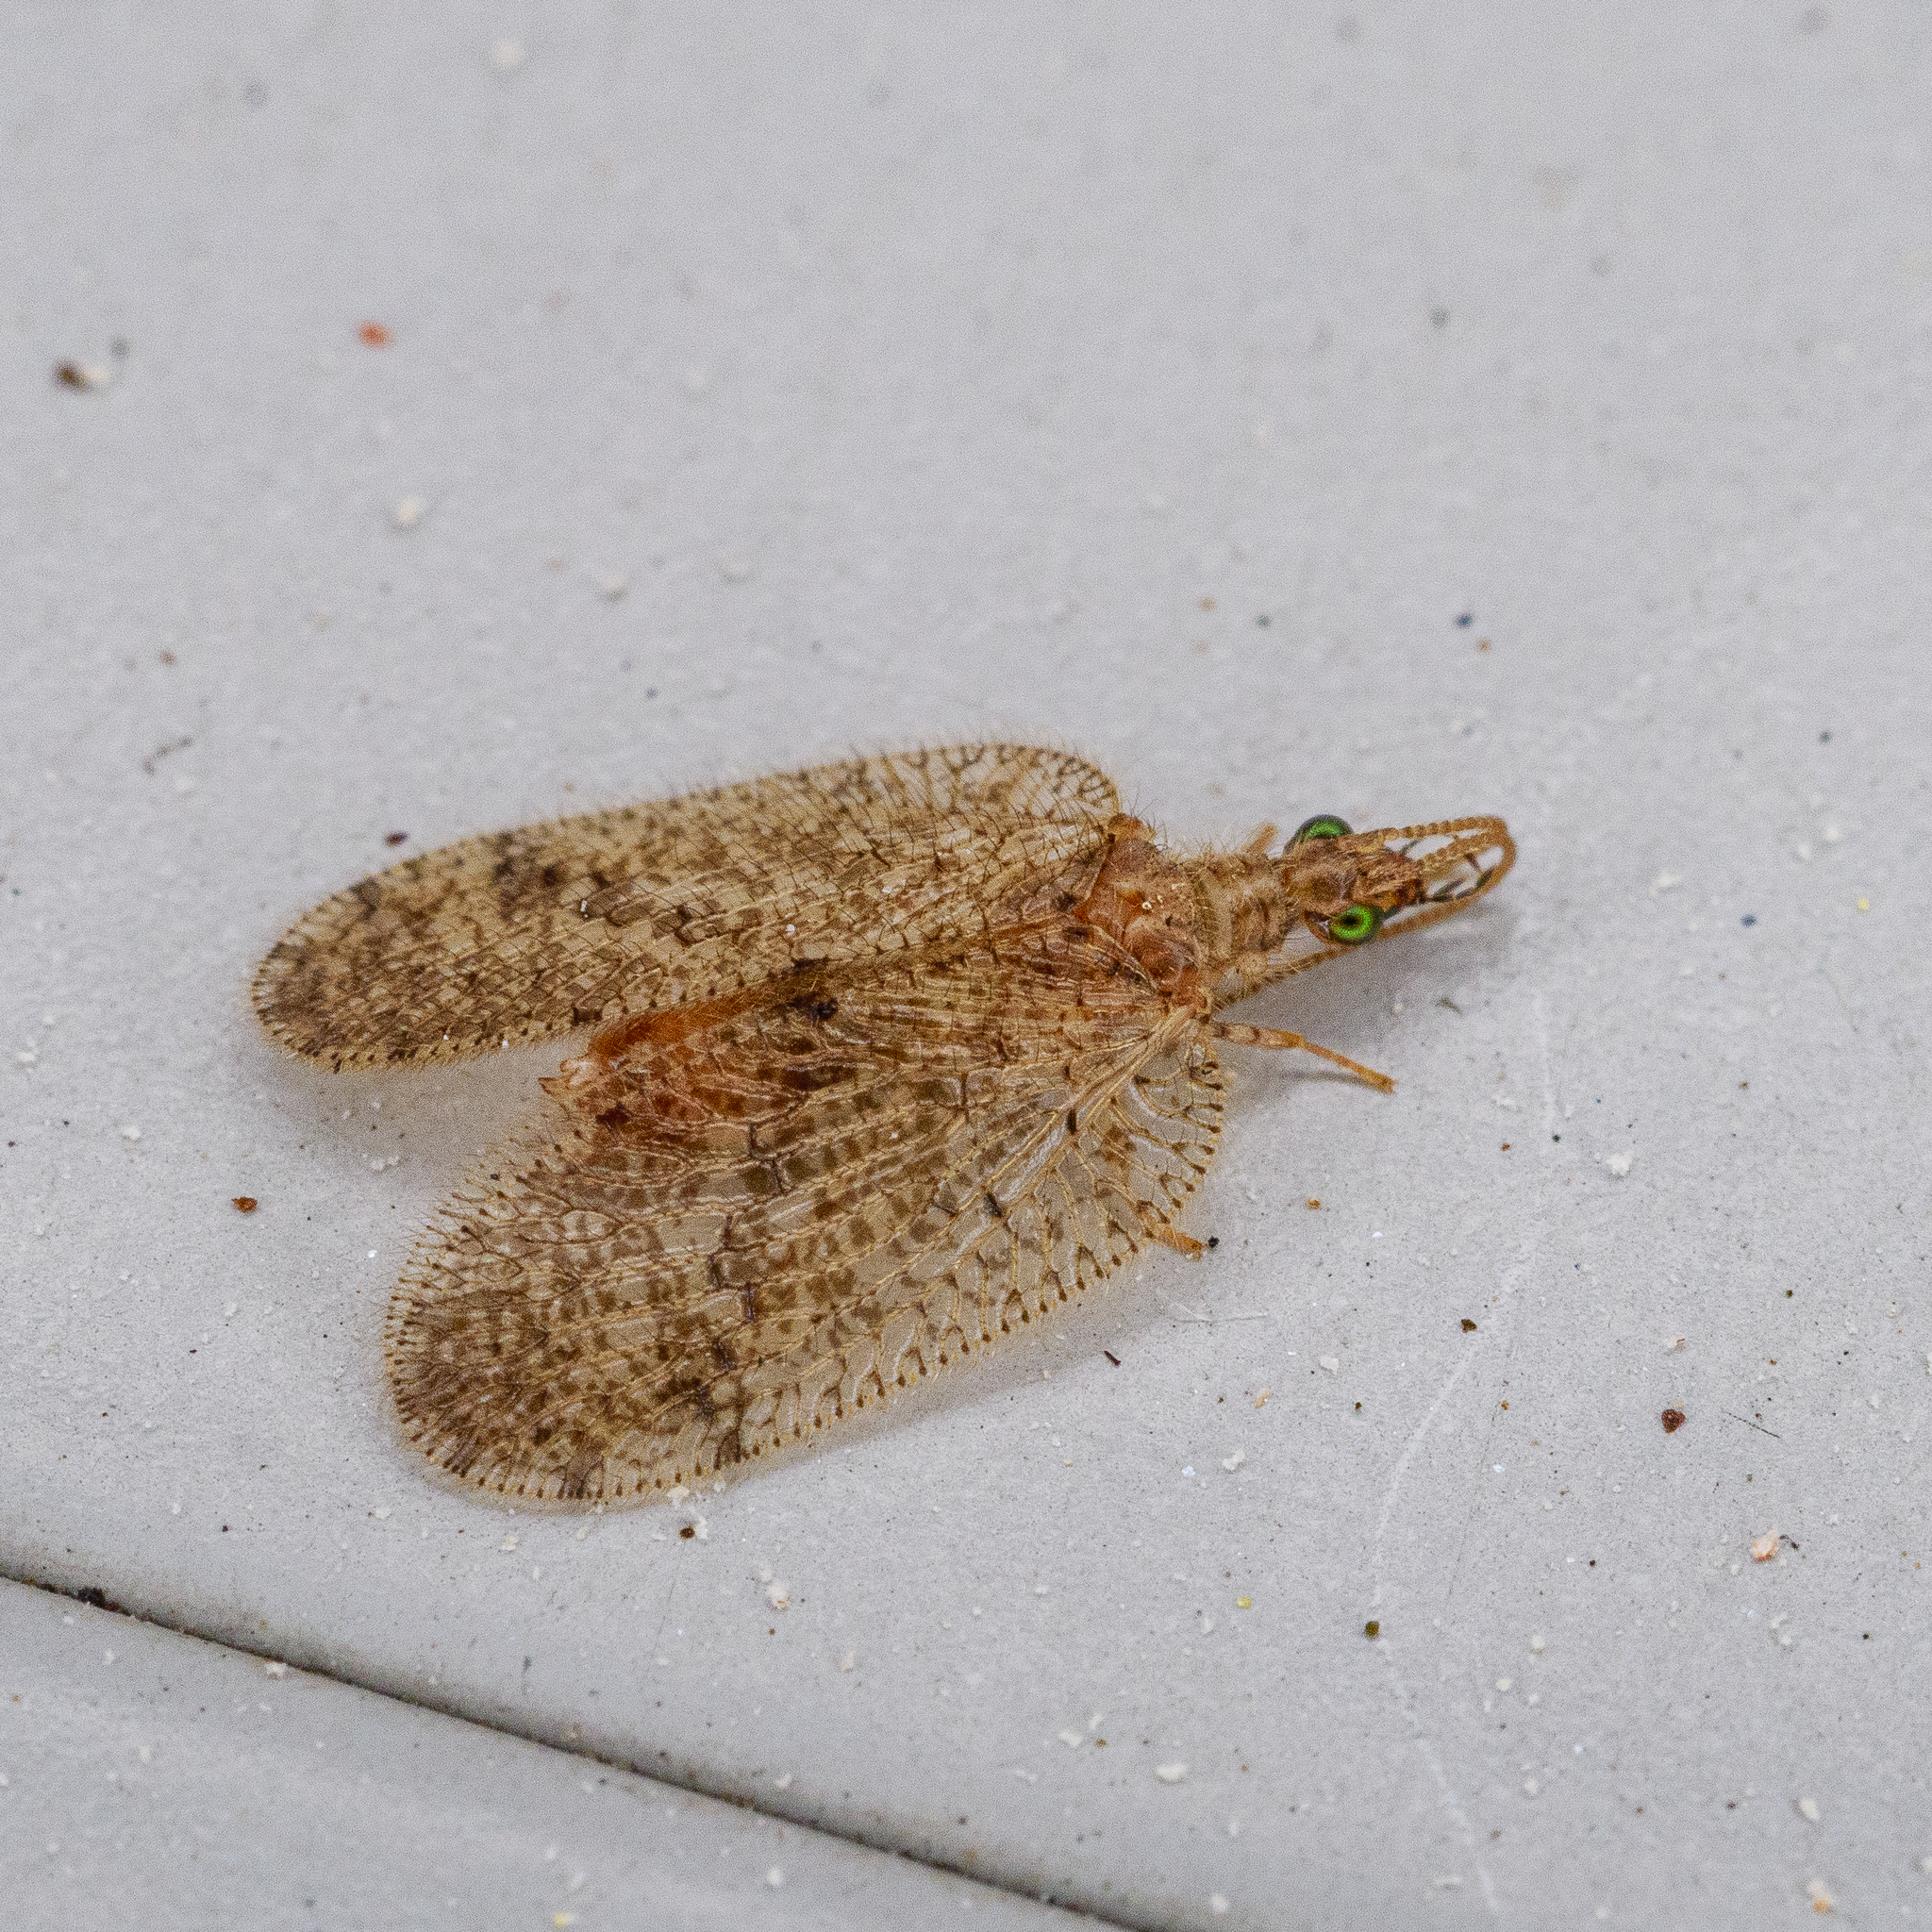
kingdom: Animalia
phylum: Arthropoda
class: Insecta
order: Neuroptera
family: Hemerobiidae
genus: Psectra
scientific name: Psectra nakaharai
